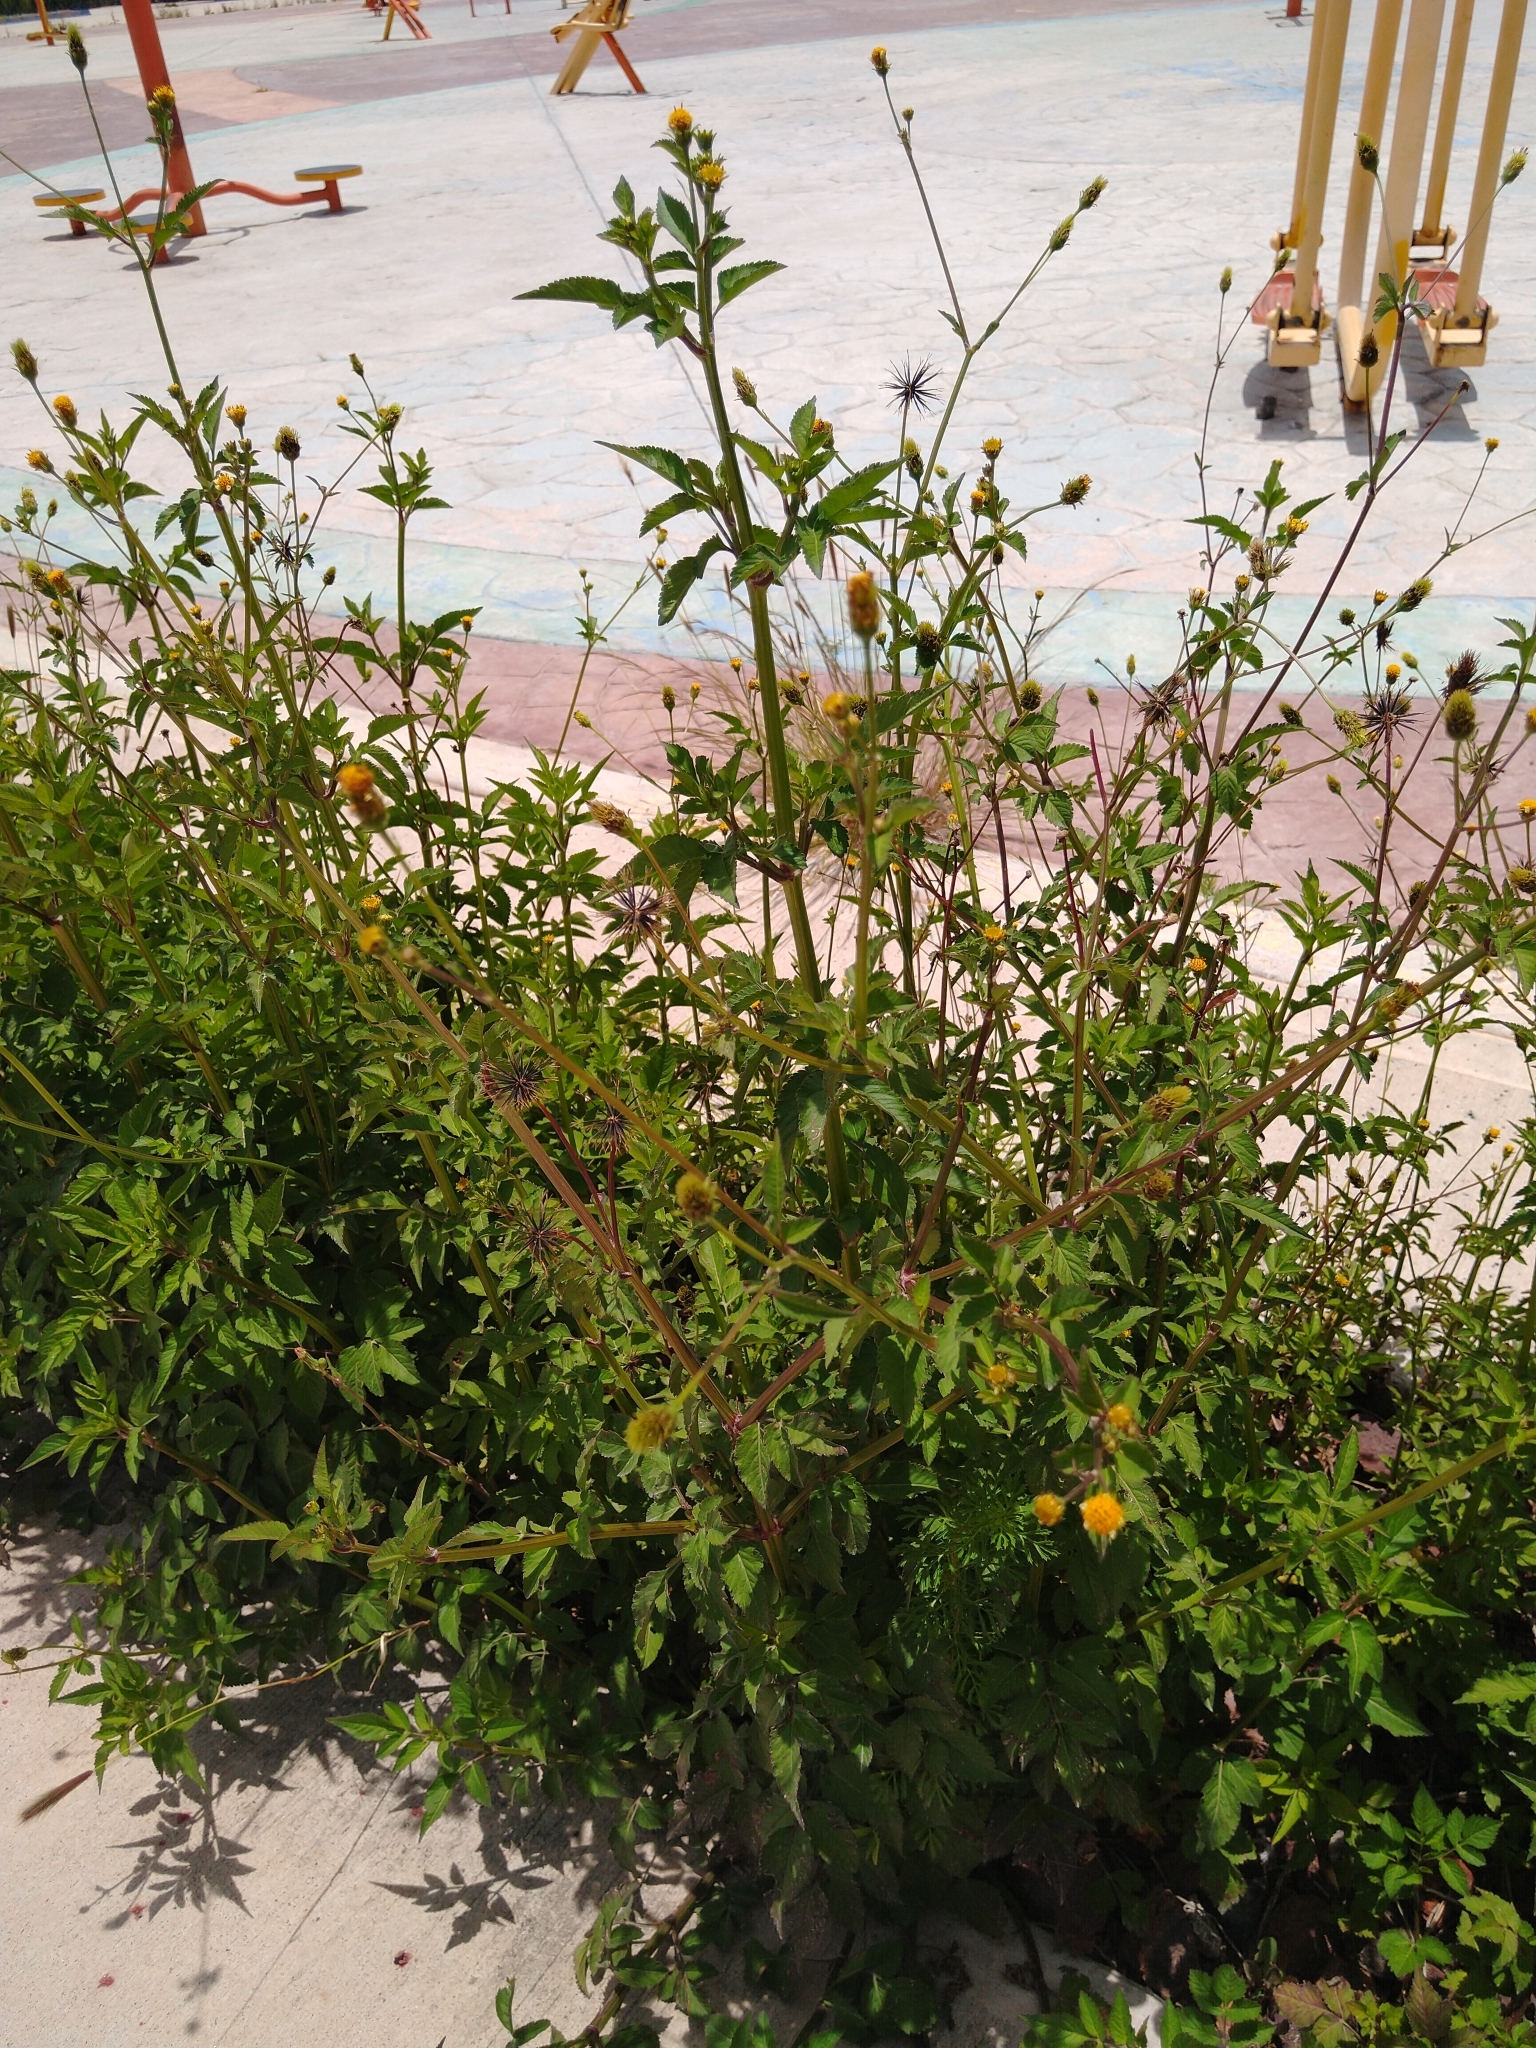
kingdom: Plantae
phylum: Tracheophyta
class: Magnoliopsida
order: Asterales
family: Asteraceae
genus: Bidens
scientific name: Bidens pilosa
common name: Black-jack
